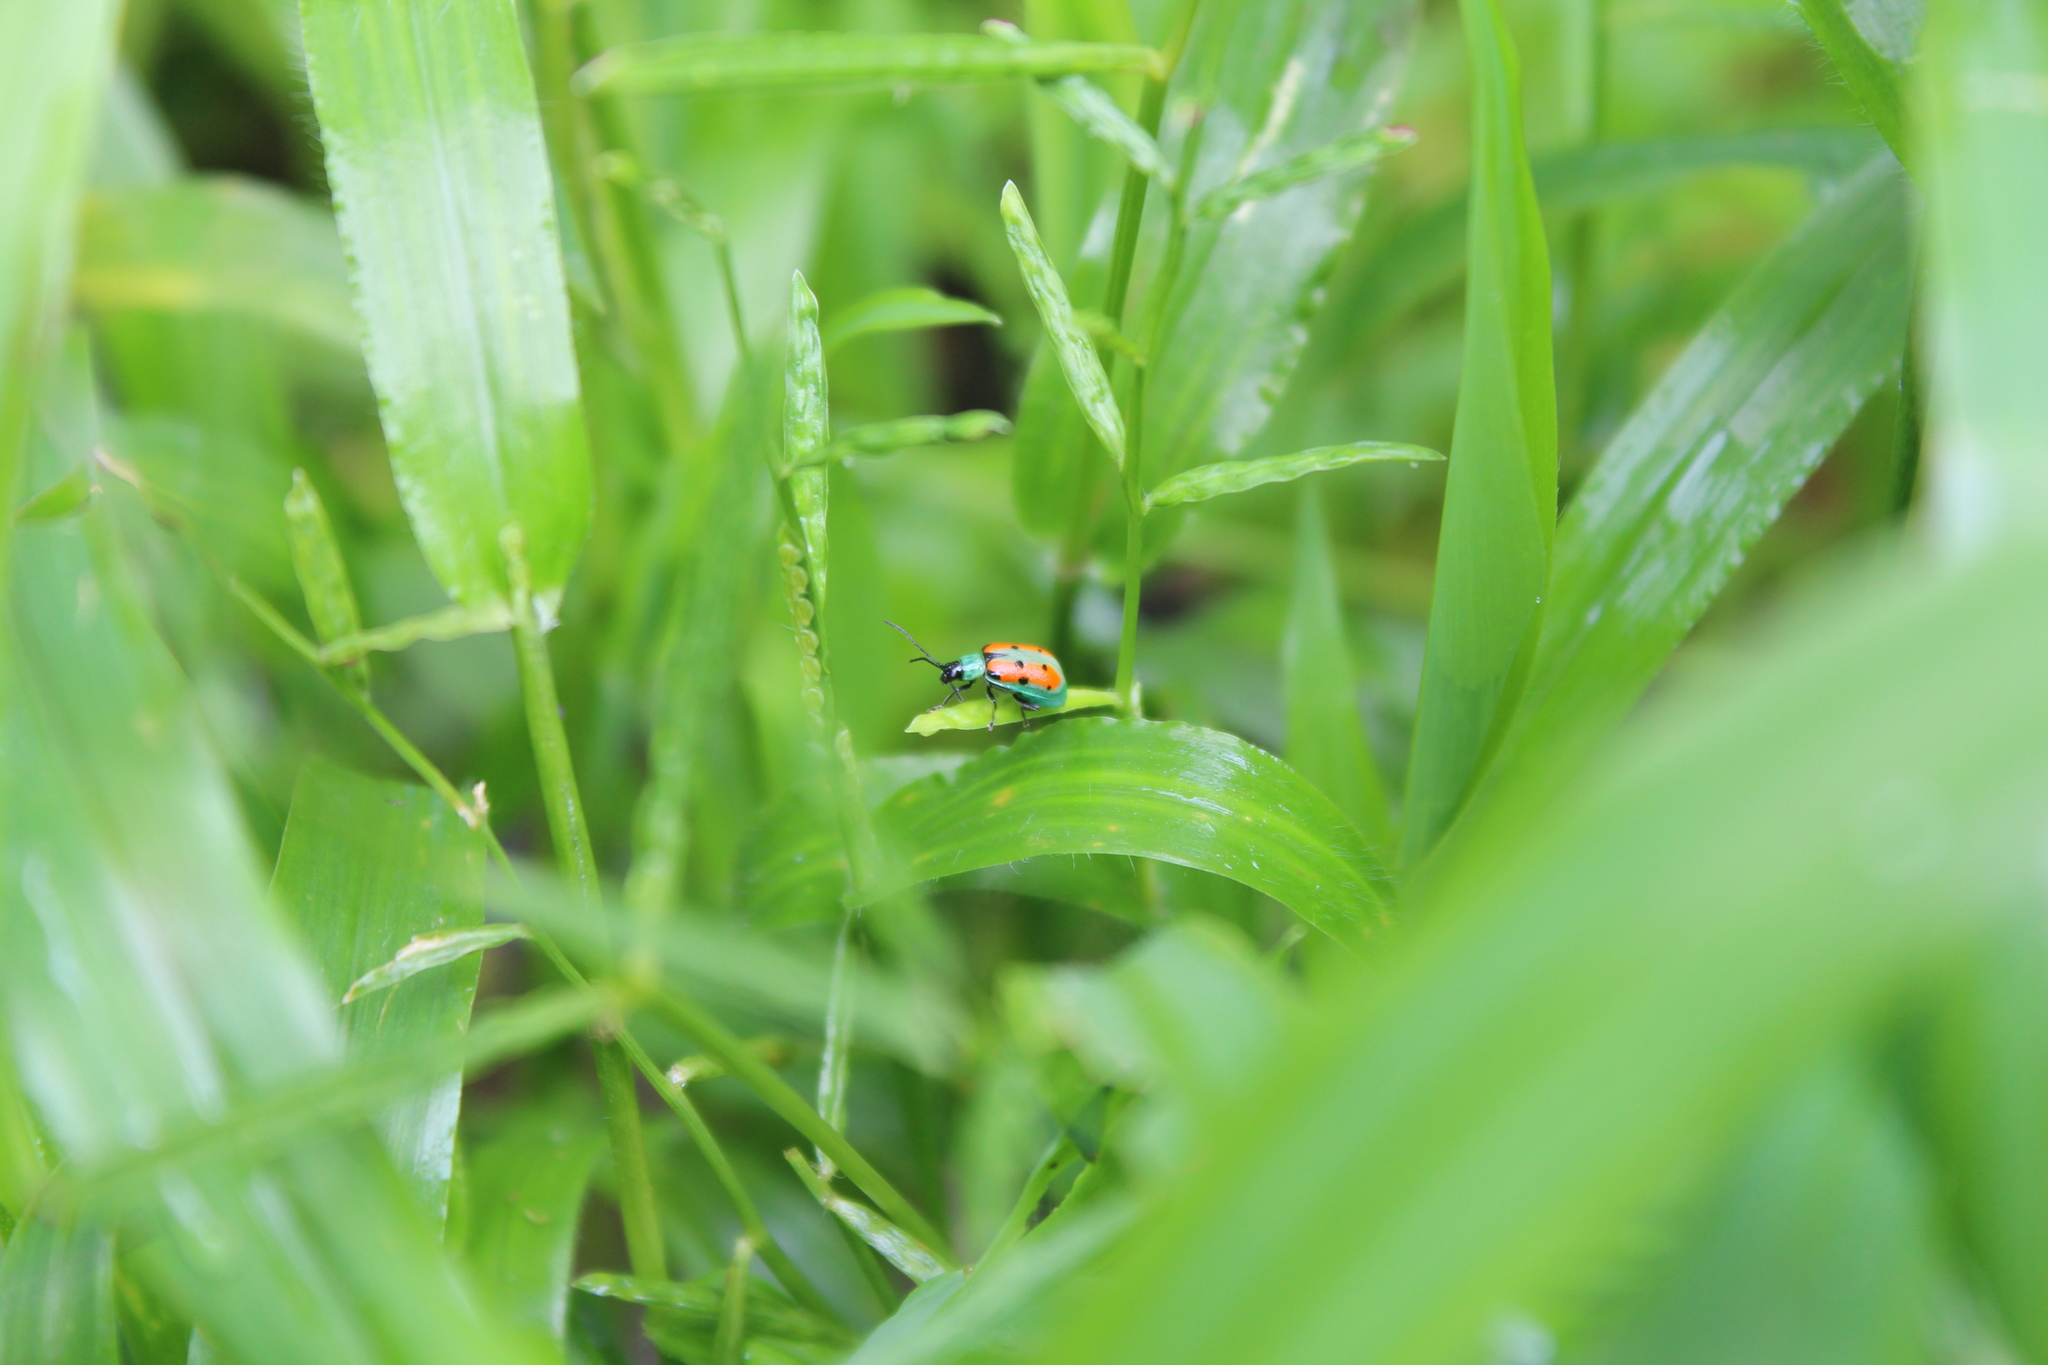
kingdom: Animalia
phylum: Arthropoda
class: Insecta
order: Coleoptera
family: Chrysomelidae
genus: Diabrotica
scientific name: Diabrotica decempunctata
